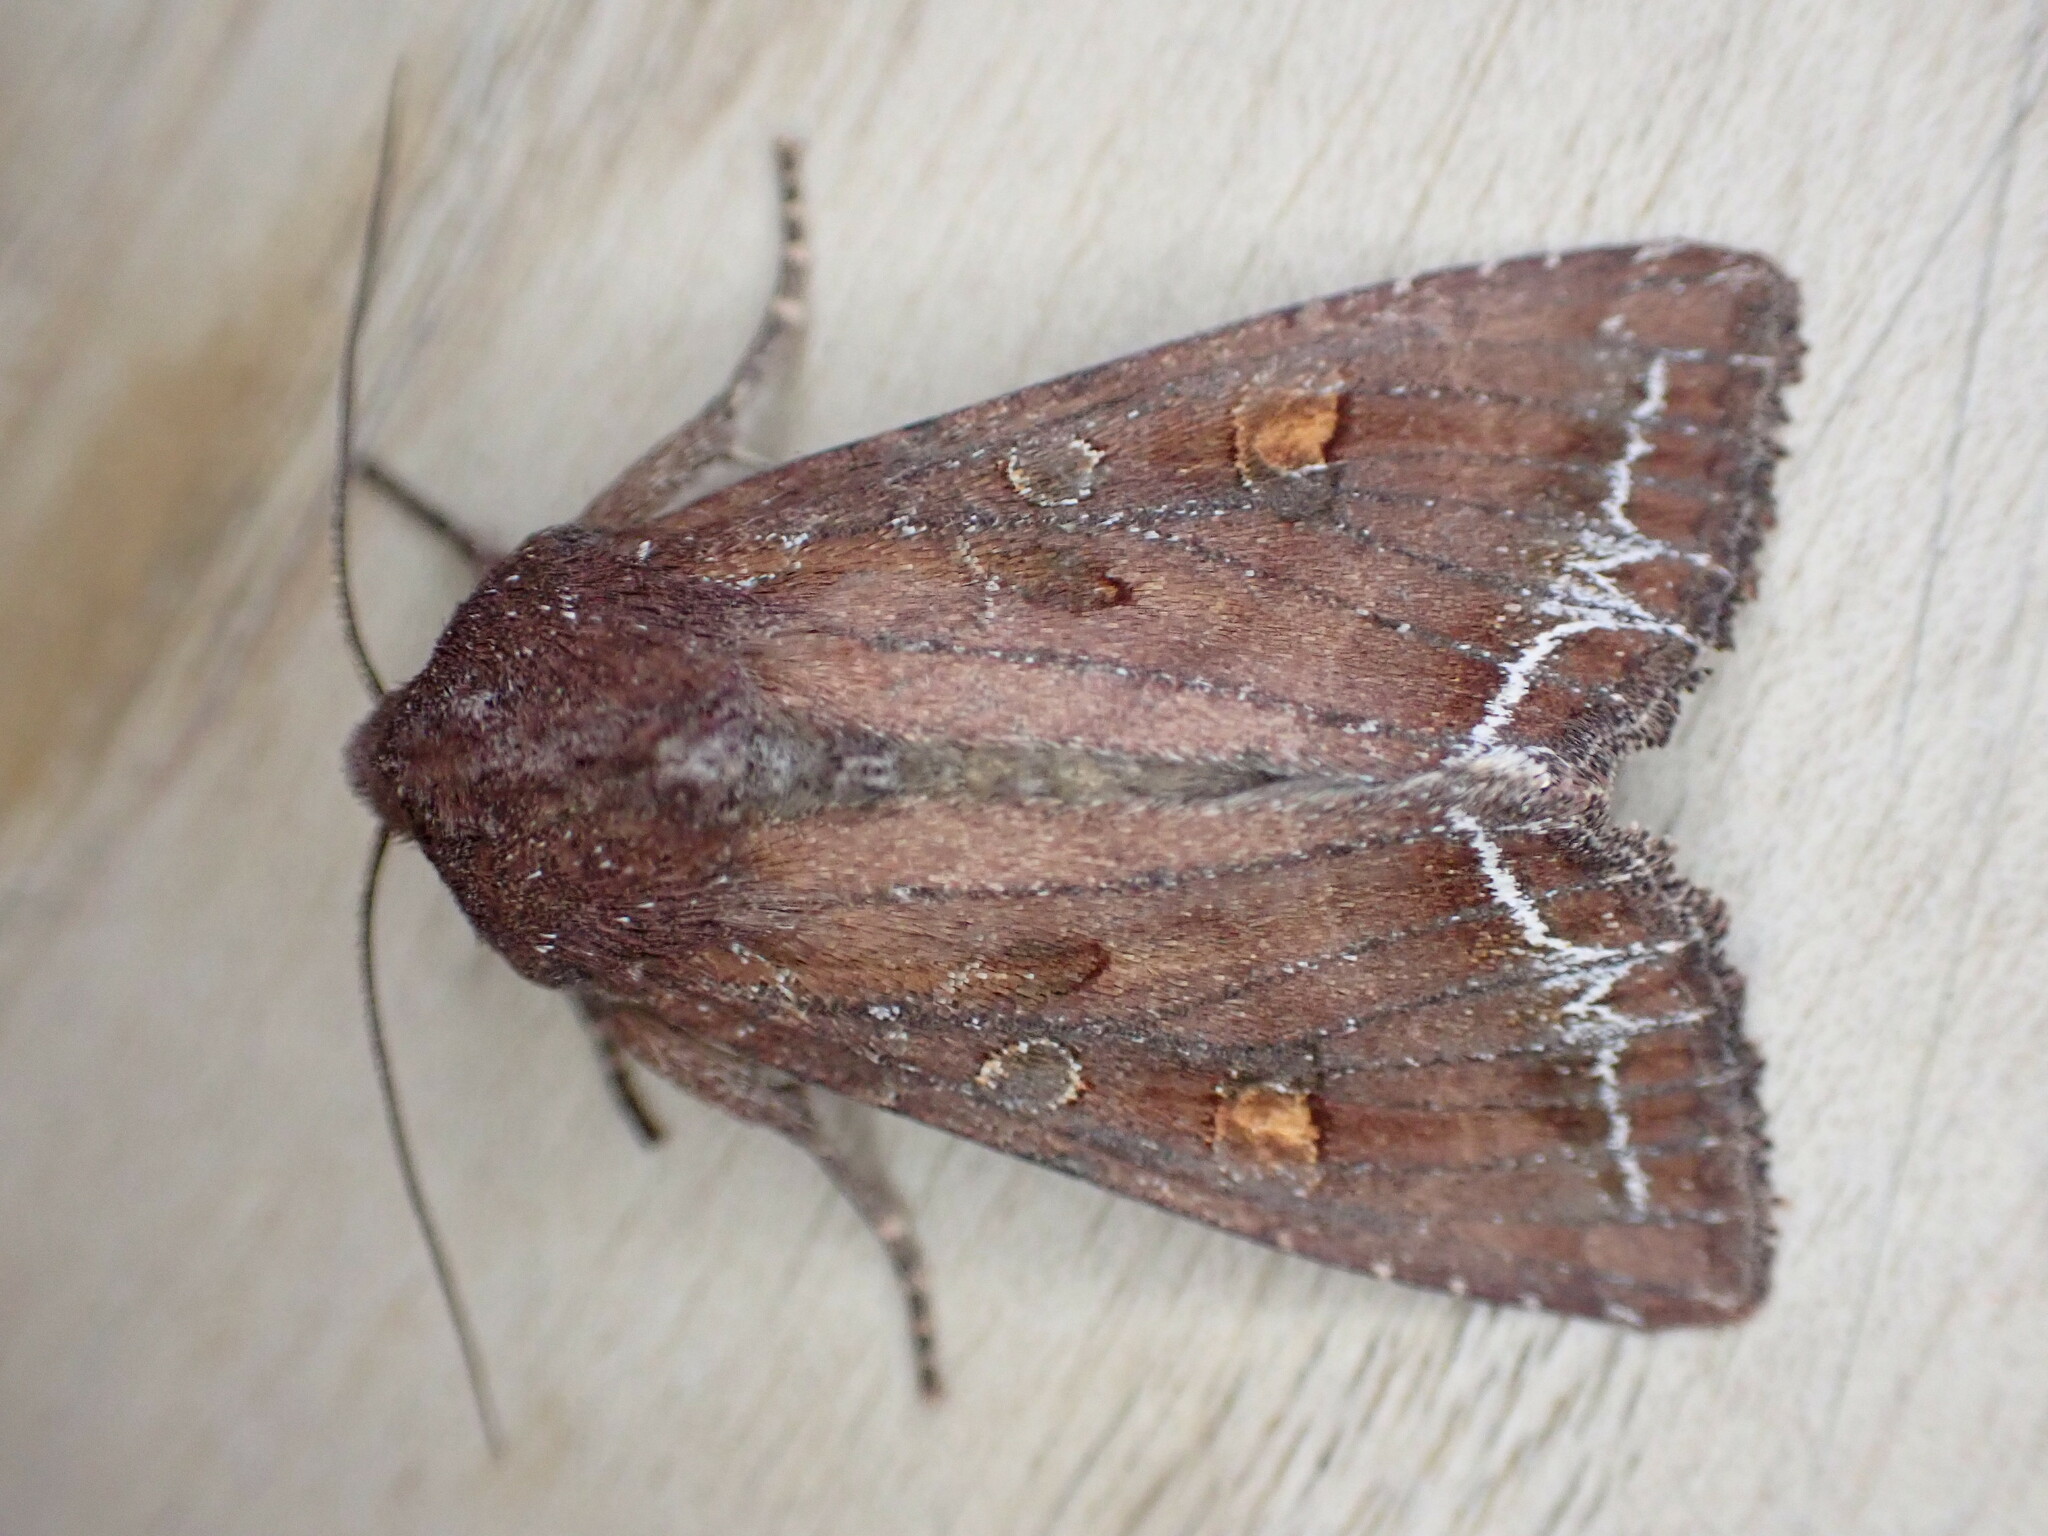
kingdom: Animalia
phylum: Arthropoda
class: Insecta
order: Lepidoptera
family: Noctuidae
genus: Lacanobia
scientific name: Lacanobia oleracea
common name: Bright-line brown-eye
